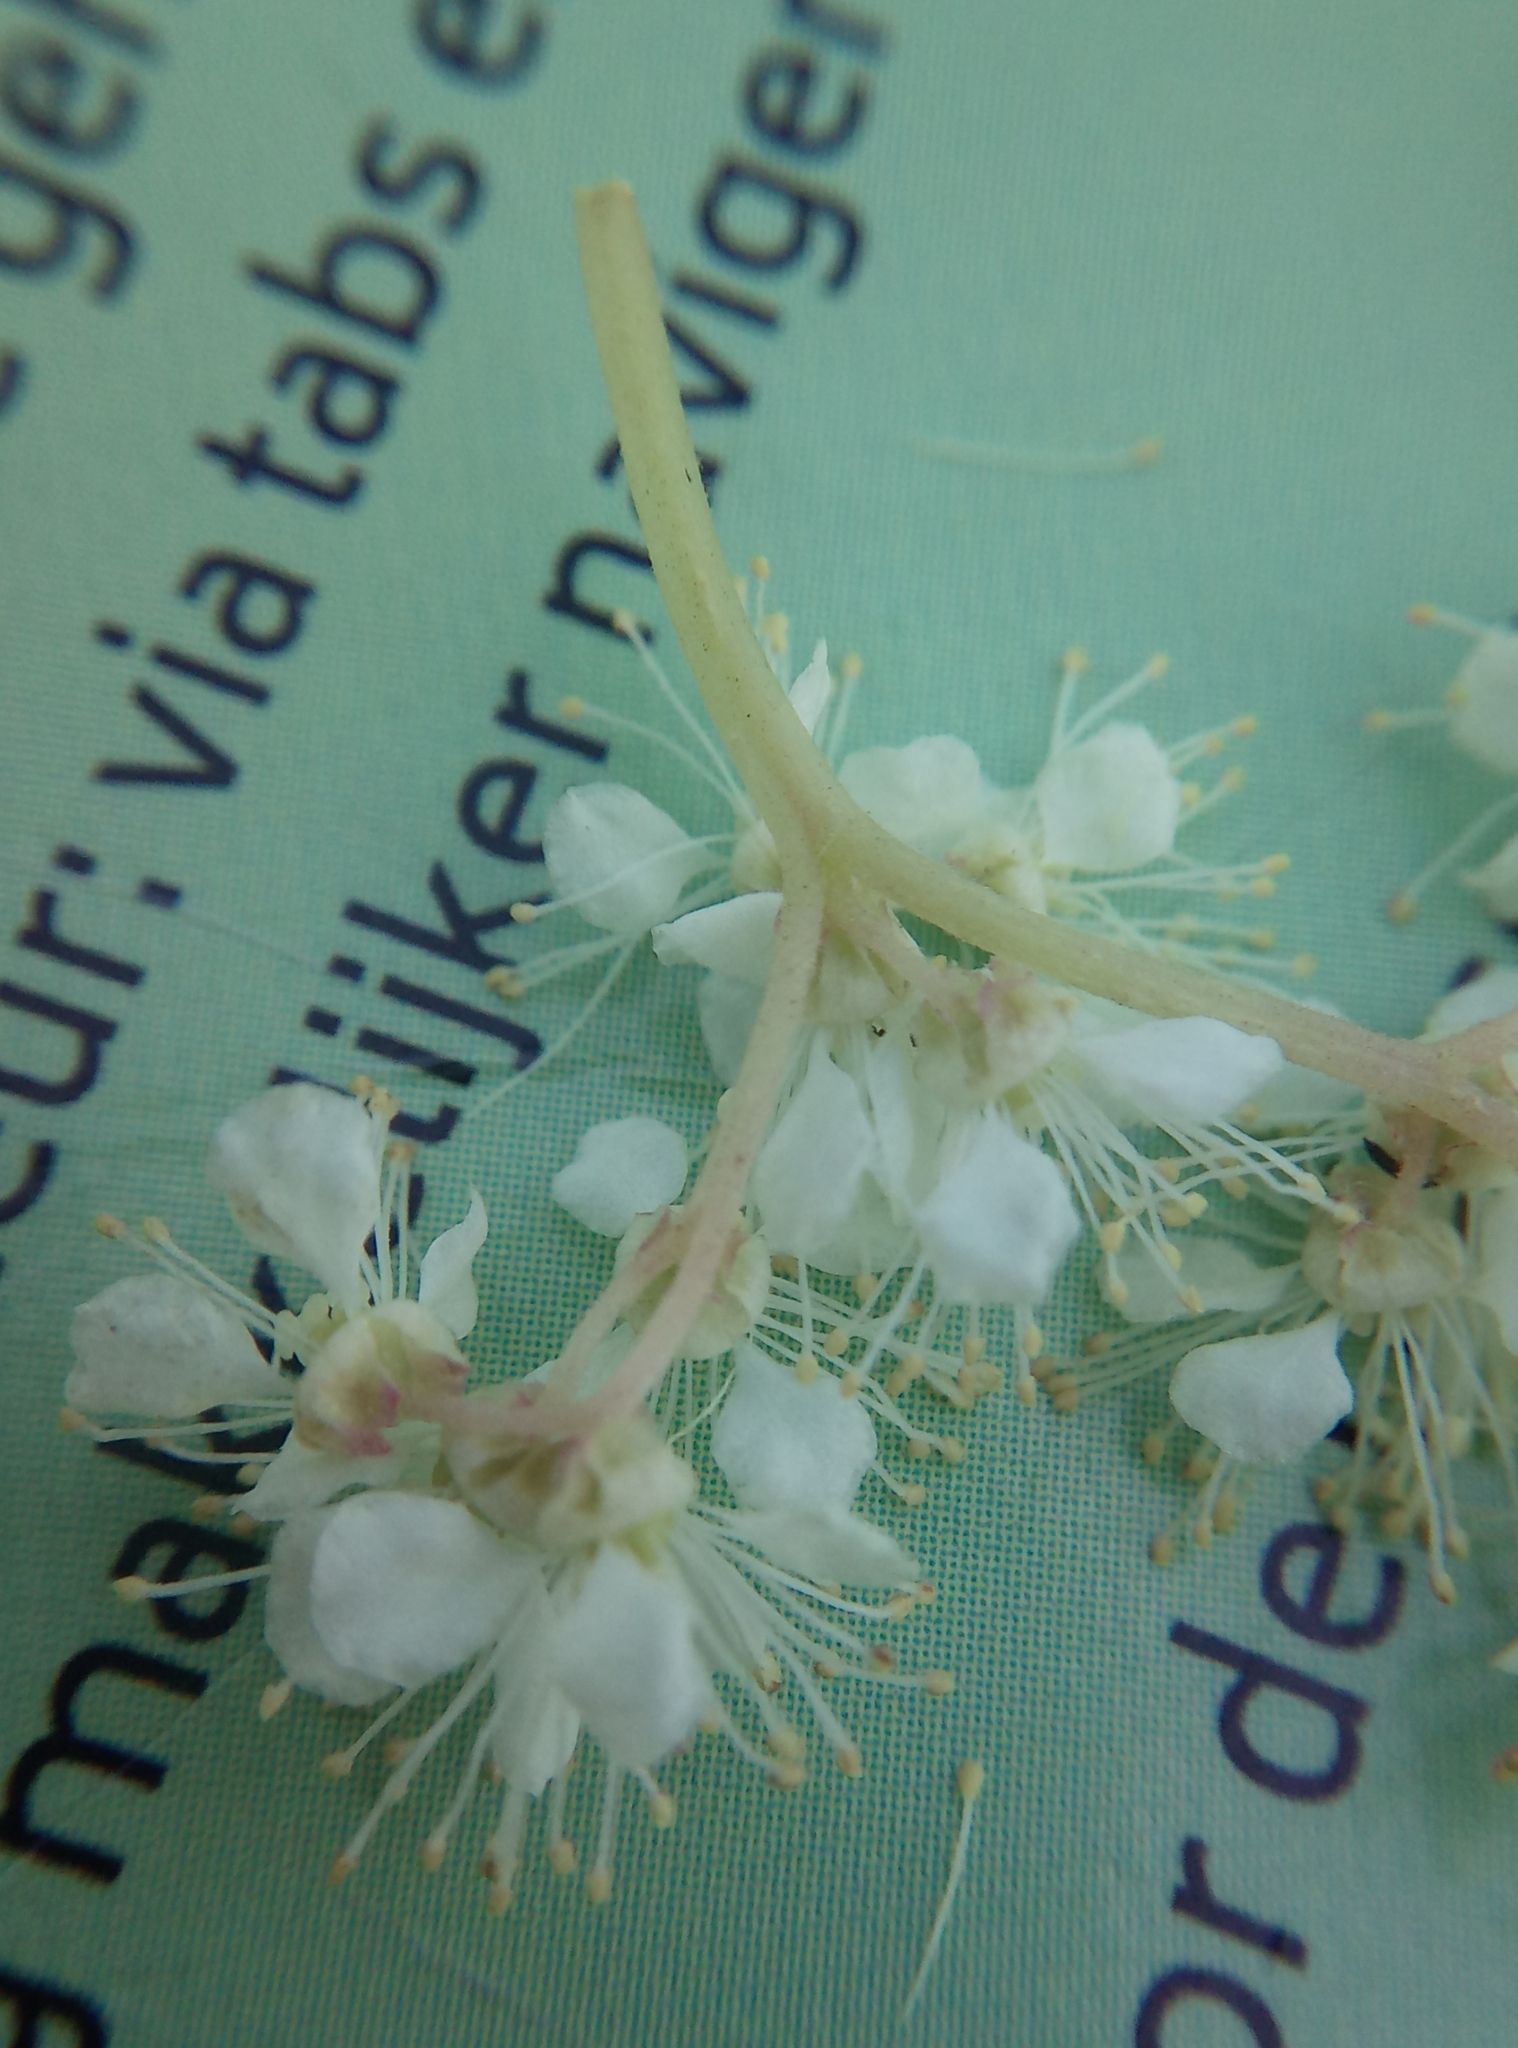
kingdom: Plantae
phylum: Tracheophyta
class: Magnoliopsida
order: Rosales
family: Rosaceae
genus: Filipendula
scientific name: Filipendula ulmaria
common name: Meadowsweet
